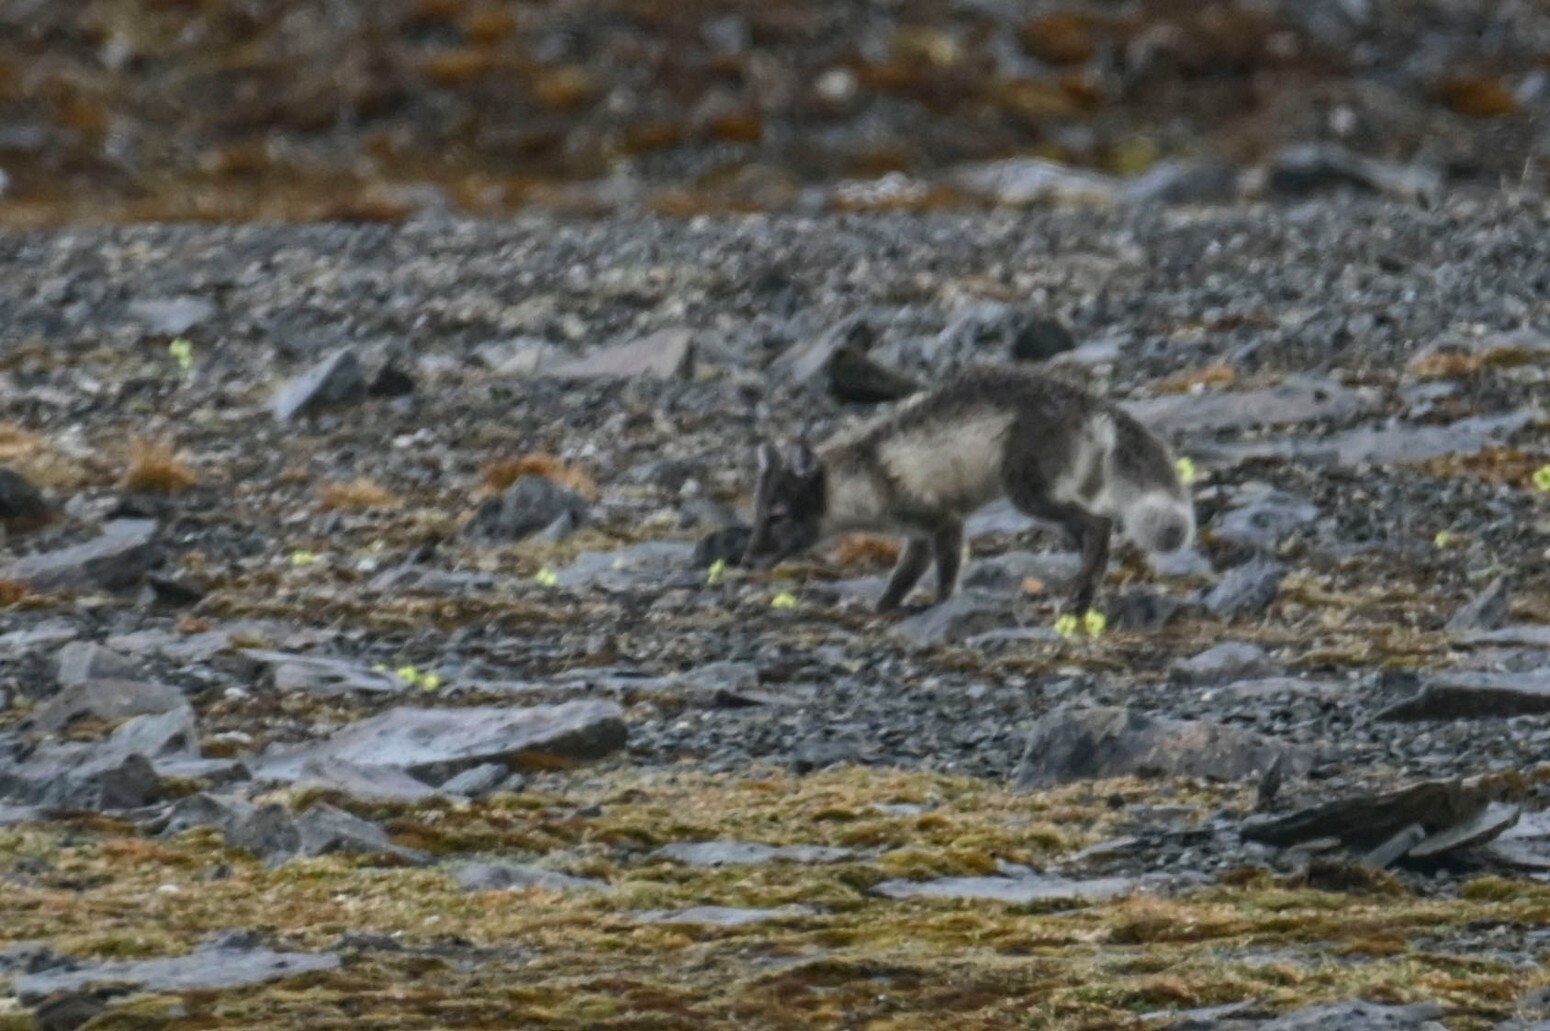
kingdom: Animalia
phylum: Chordata
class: Mammalia
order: Carnivora
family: Canidae
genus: Vulpes
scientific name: Vulpes lagopus
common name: Arctic fox
